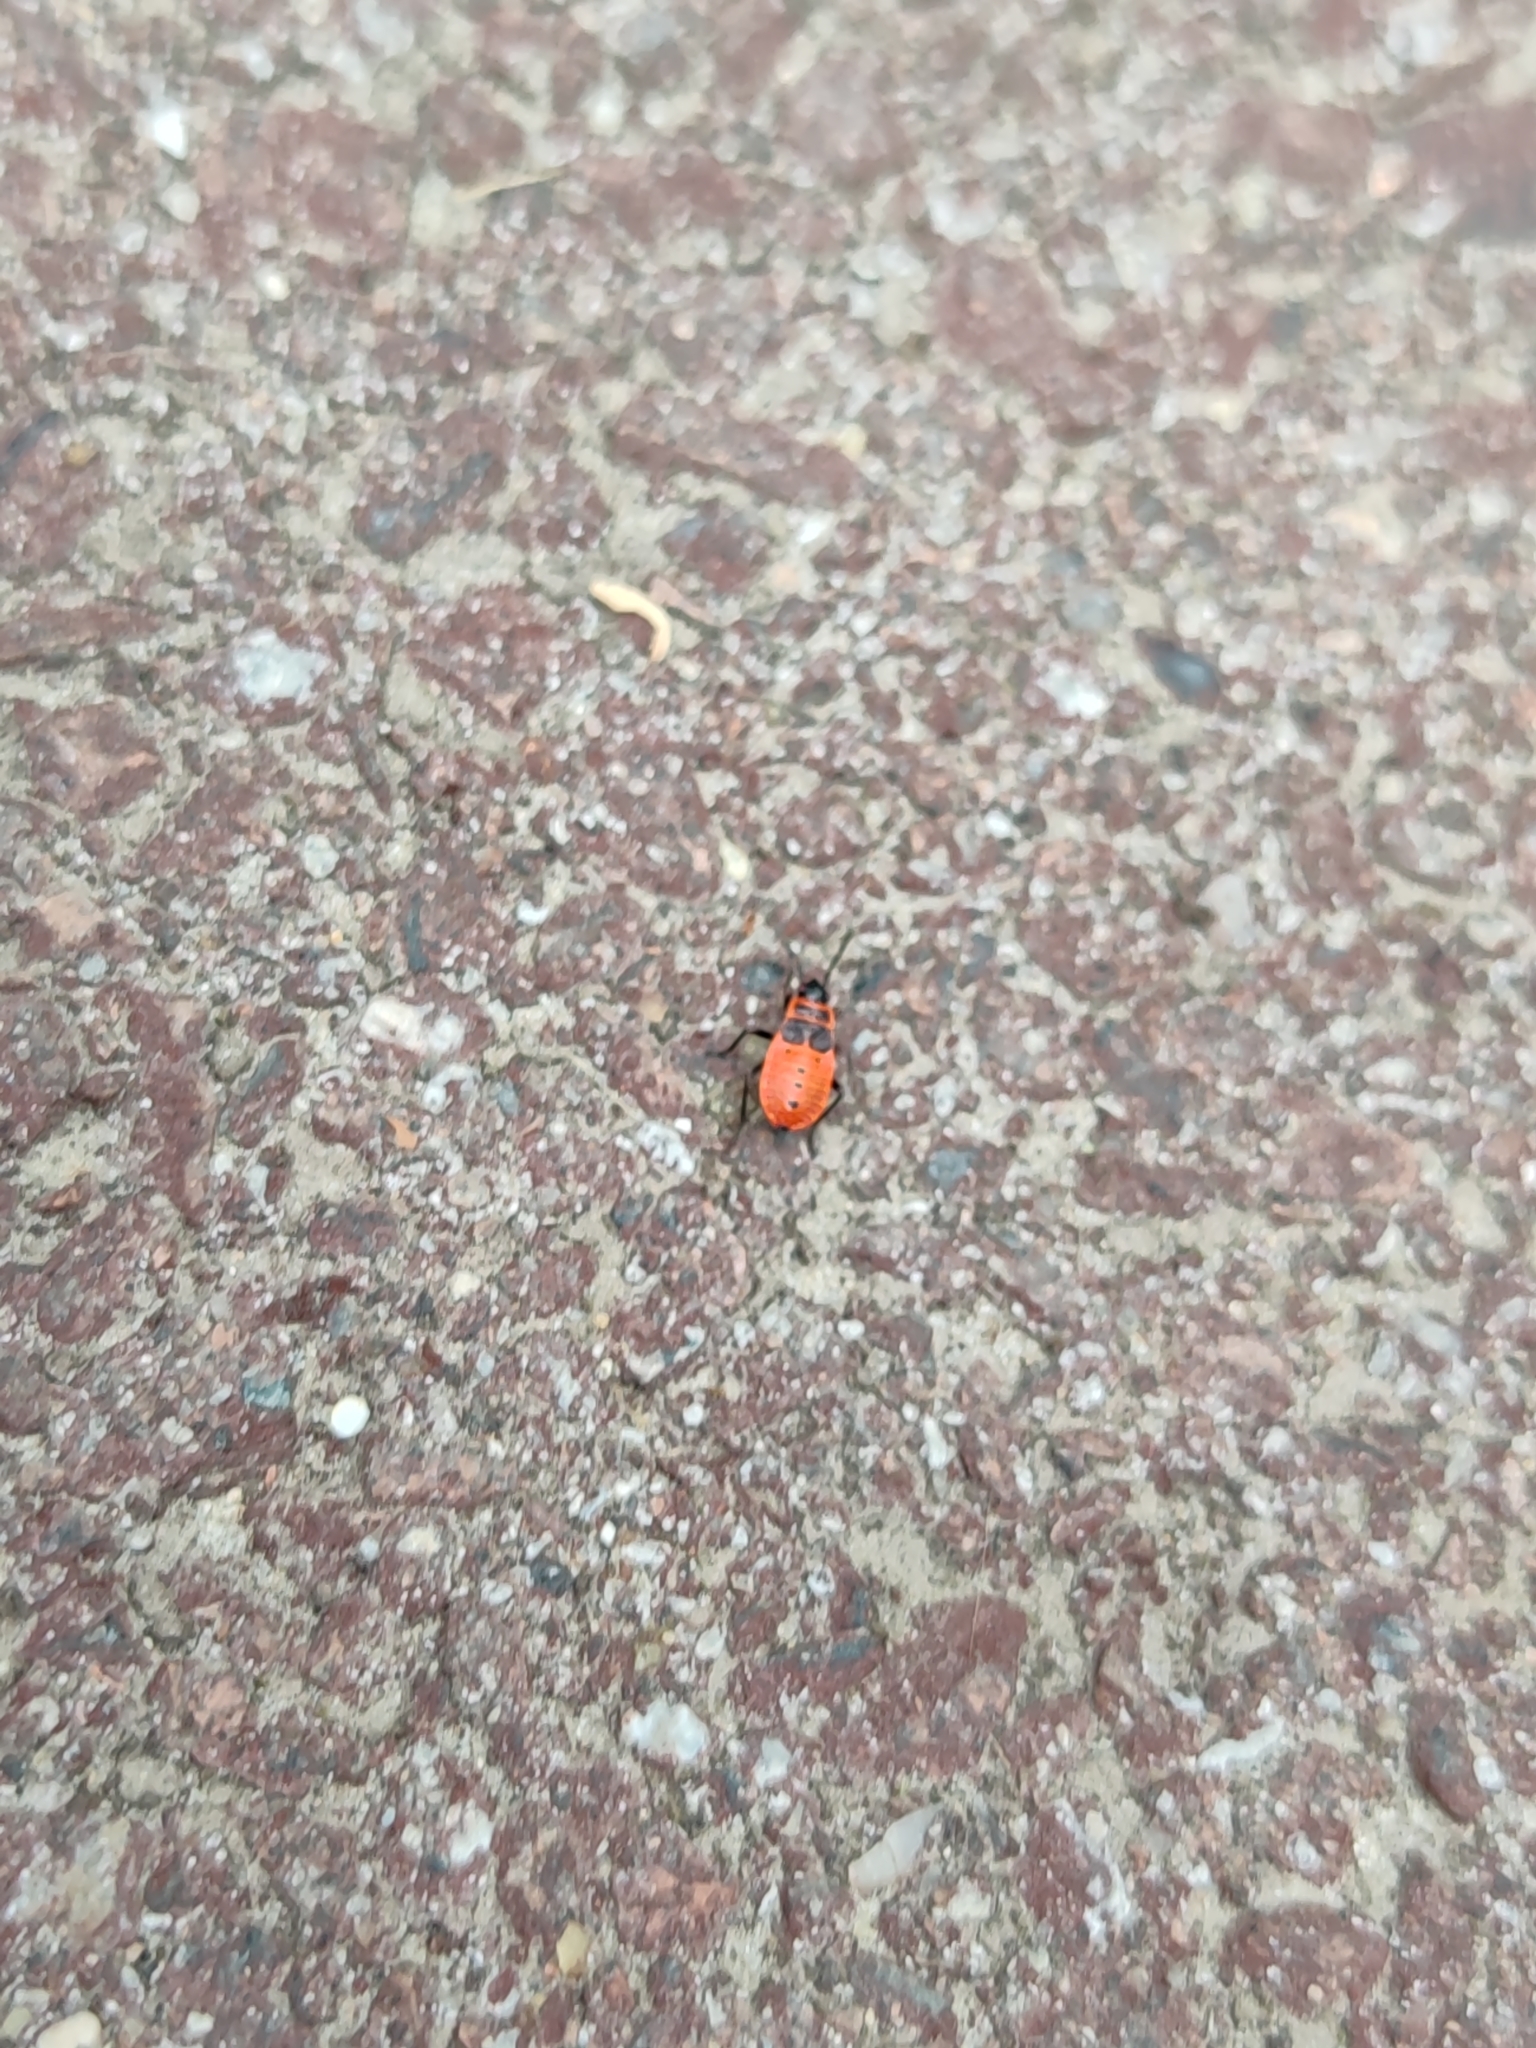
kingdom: Animalia
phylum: Arthropoda
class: Insecta
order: Hemiptera
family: Pyrrhocoridae
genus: Pyrrhocoris
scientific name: Pyrrhocoris apterus
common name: Firebug
